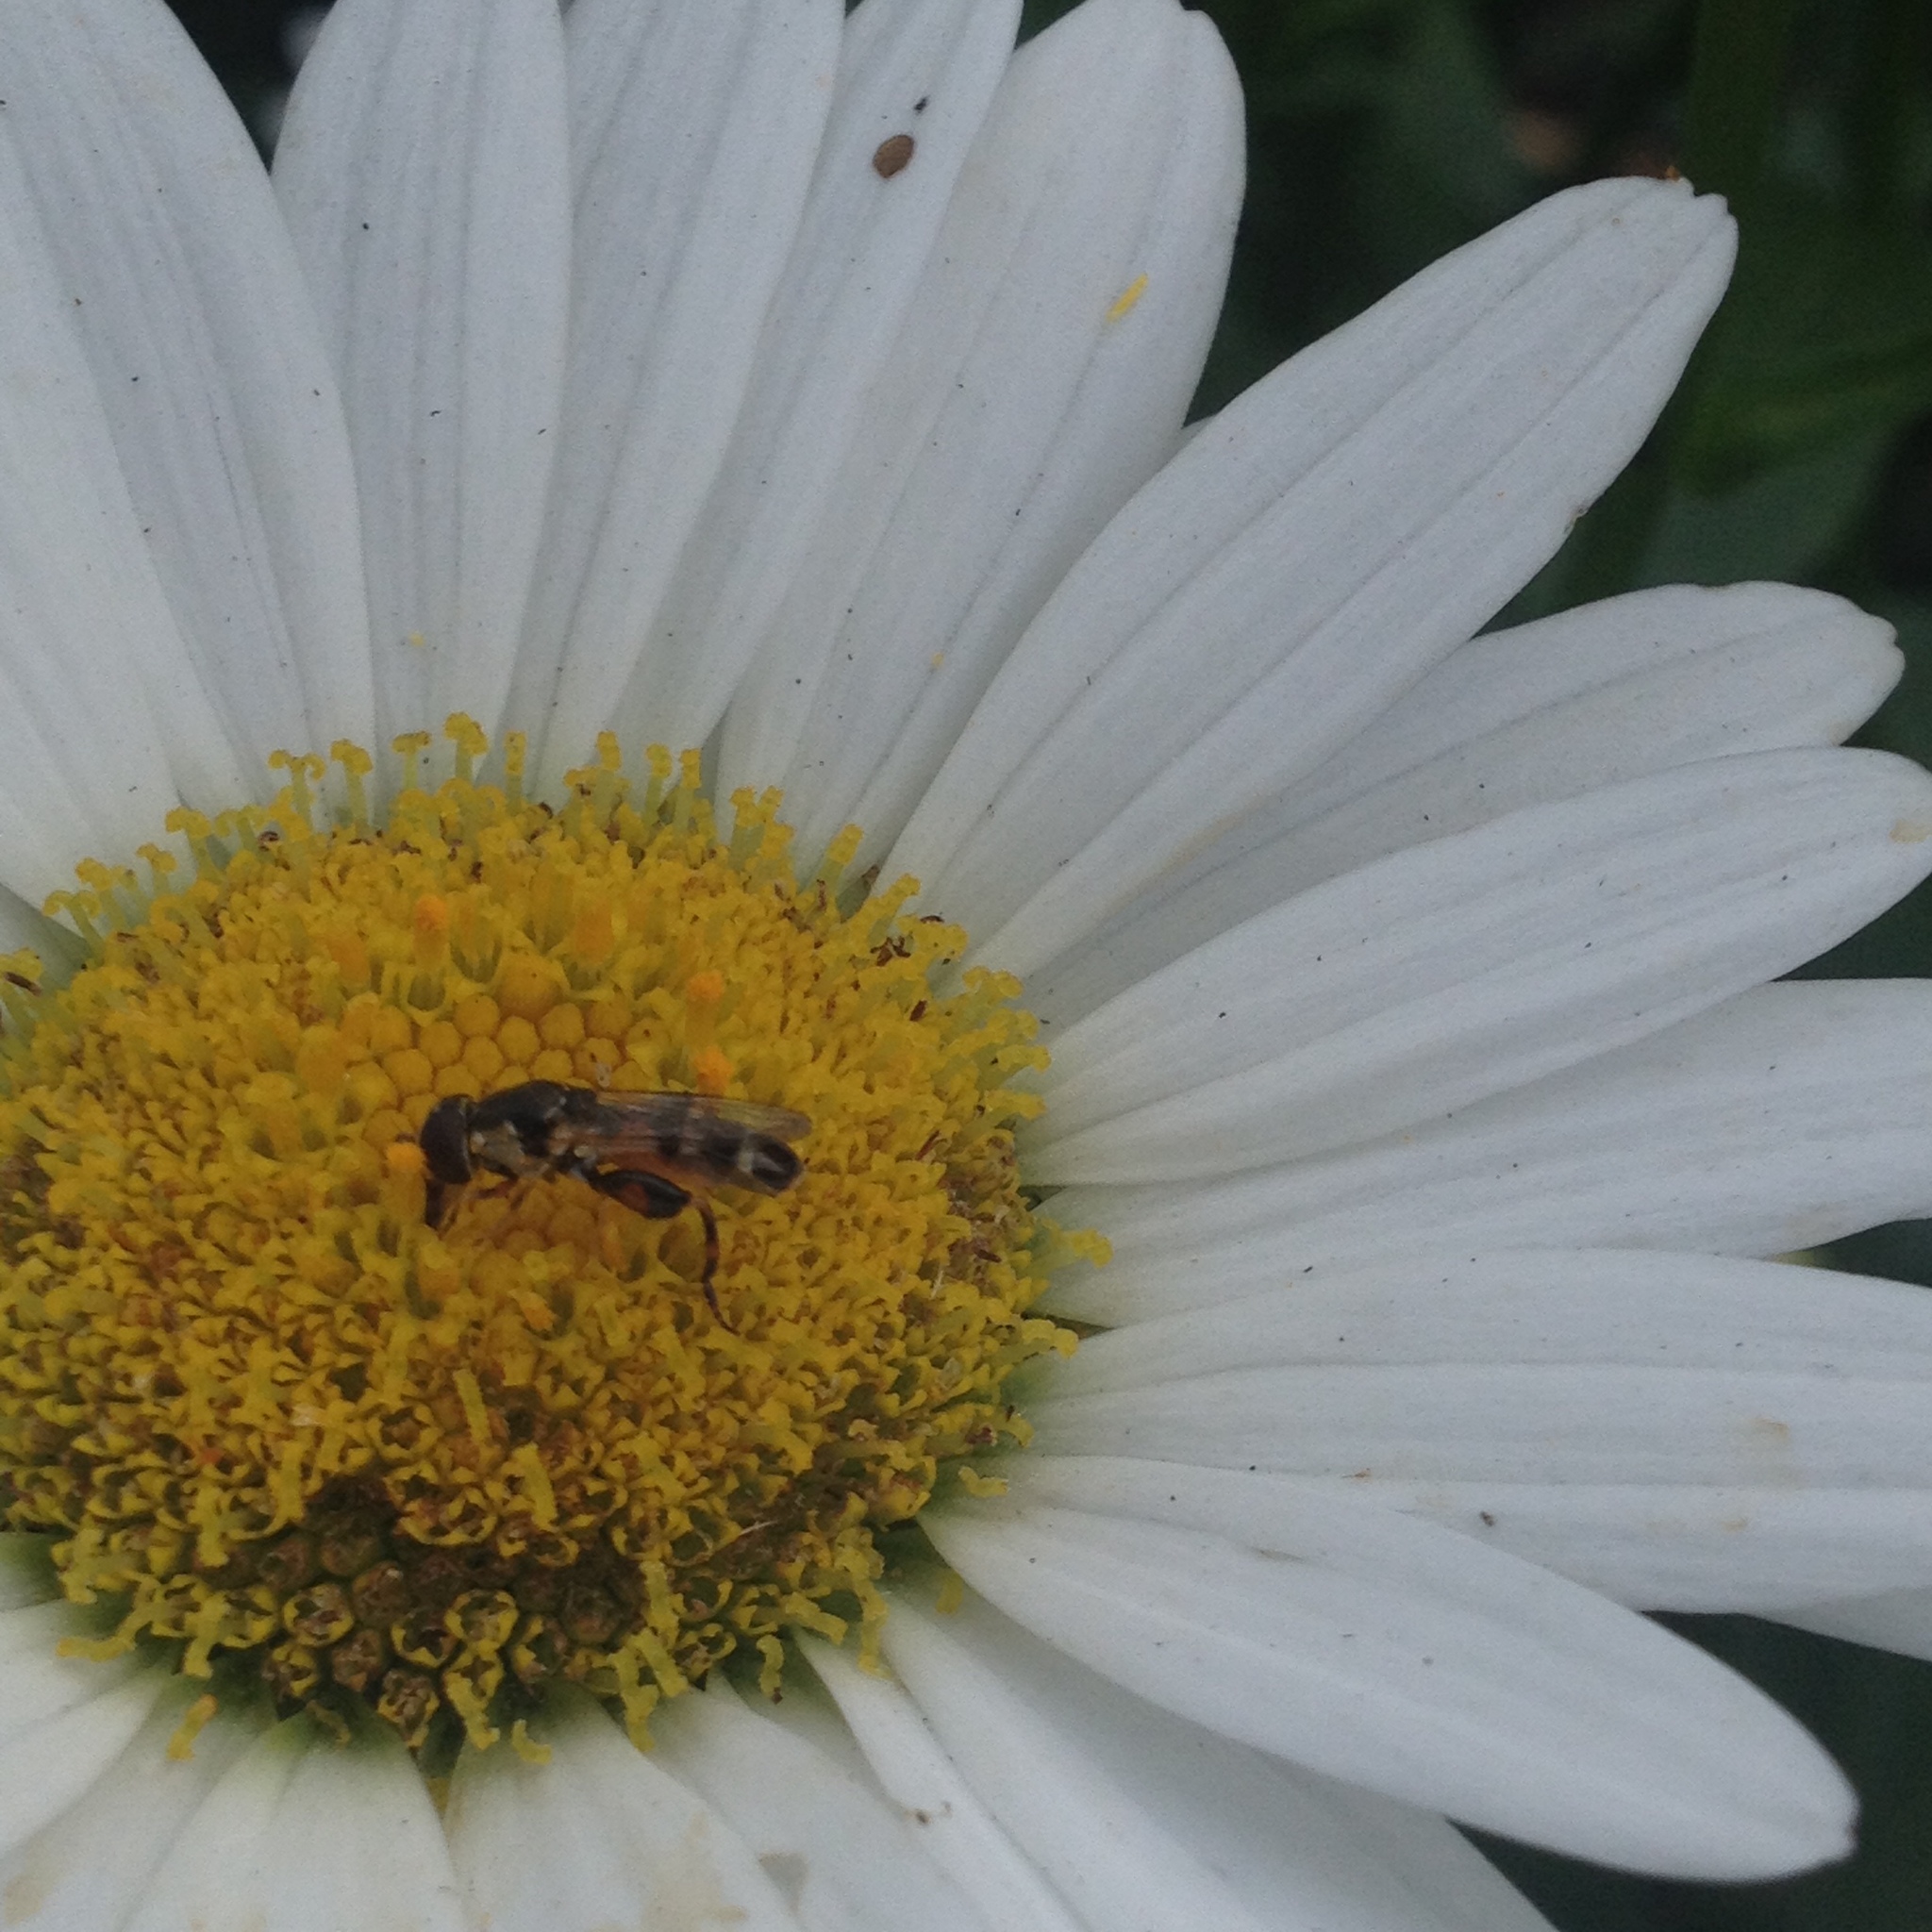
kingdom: Animalia
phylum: Arthropoda
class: Insecta
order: Diptera
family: Syrphidae
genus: Syritta
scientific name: Syritta pipiens
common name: Hover fly
